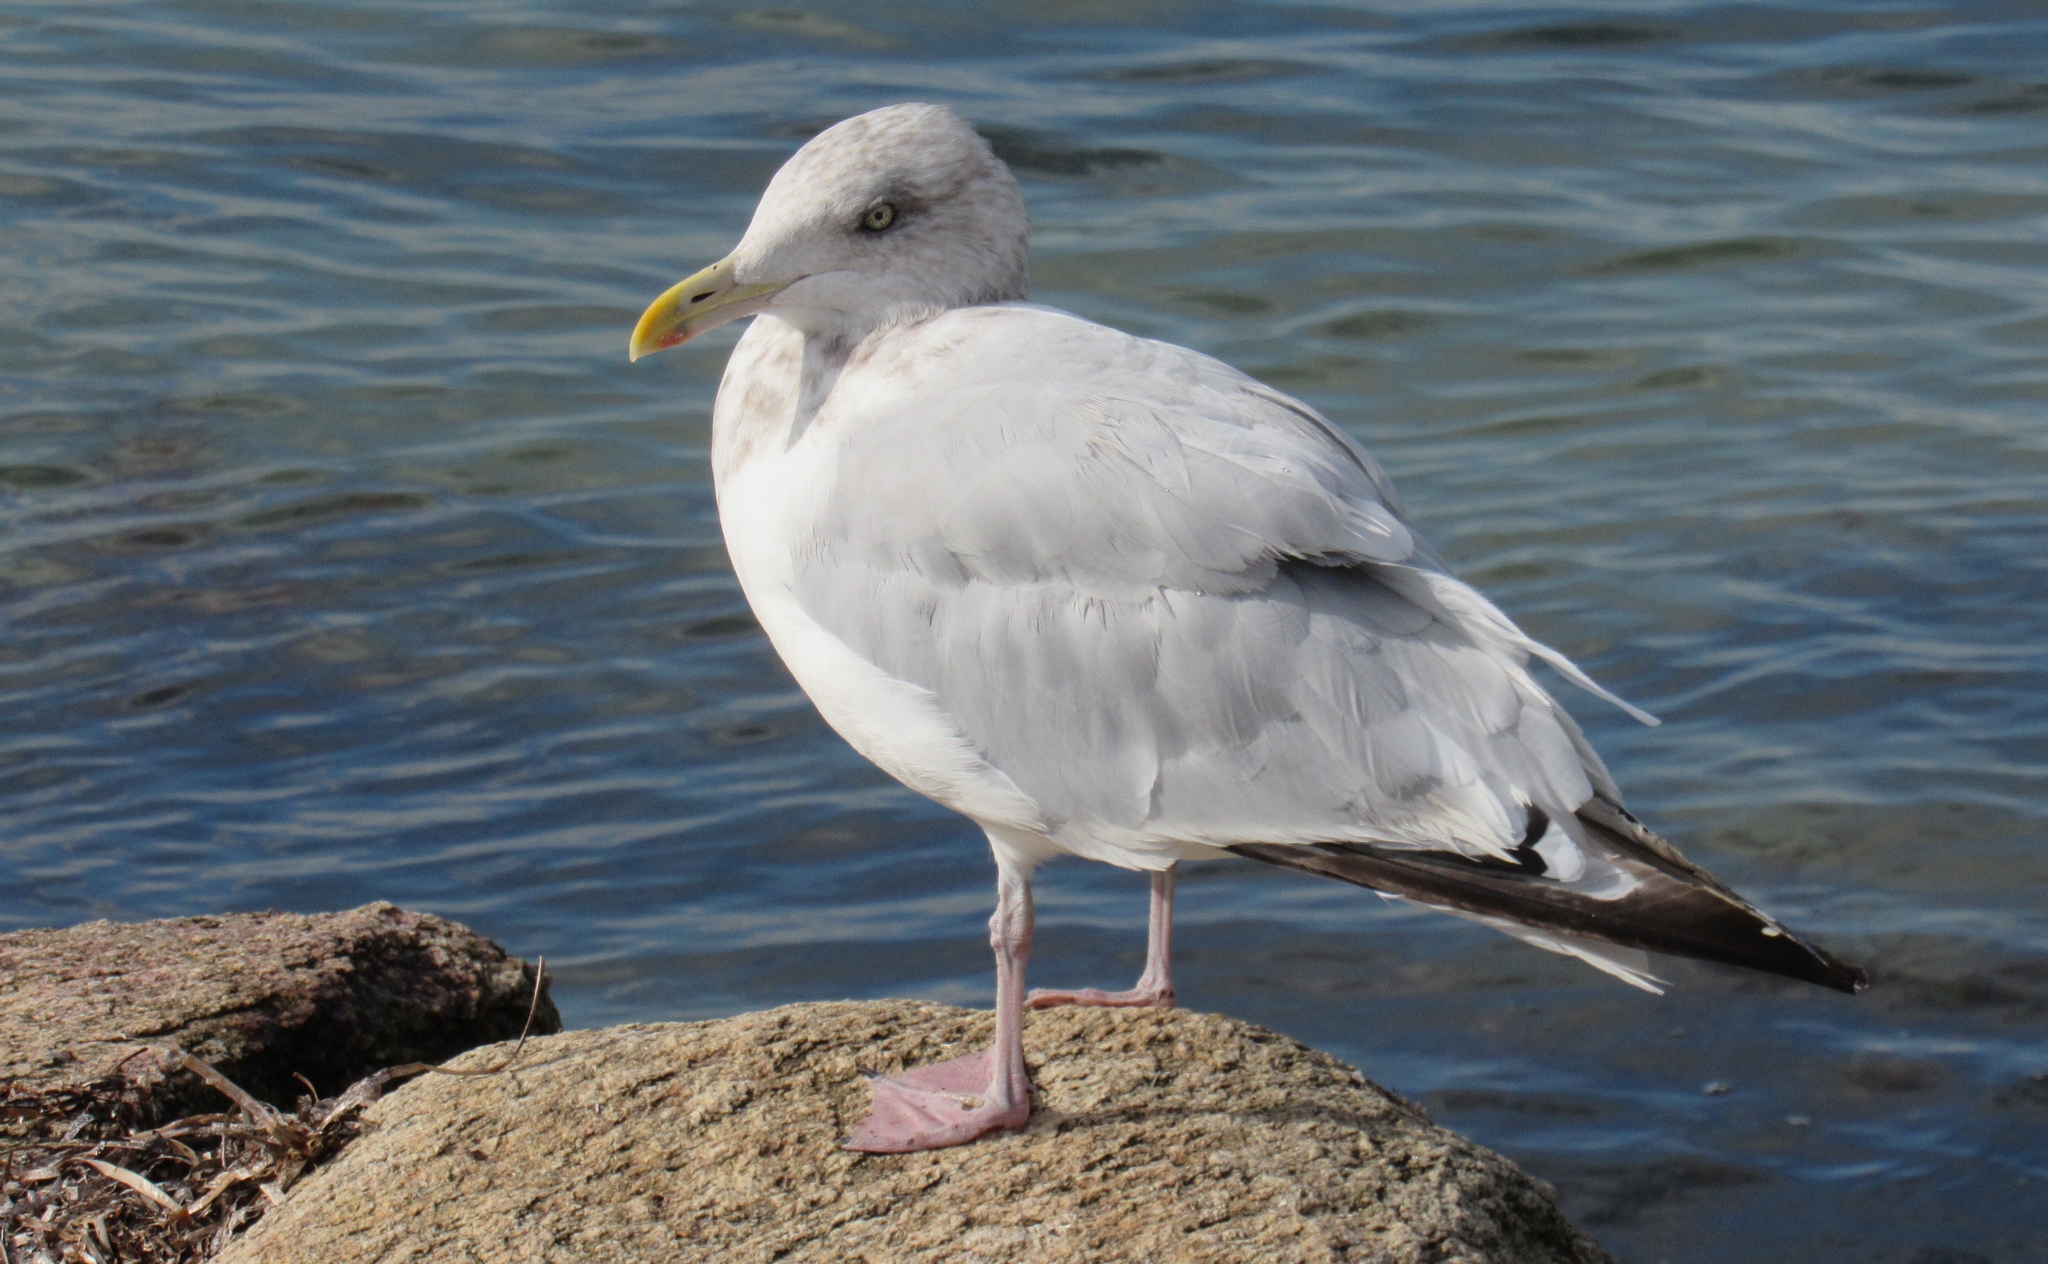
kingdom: Animalia
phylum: Chordata
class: Aves
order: Charadriiformes
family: Laridae
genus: Larus
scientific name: Larus argentatus
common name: Herring gull
